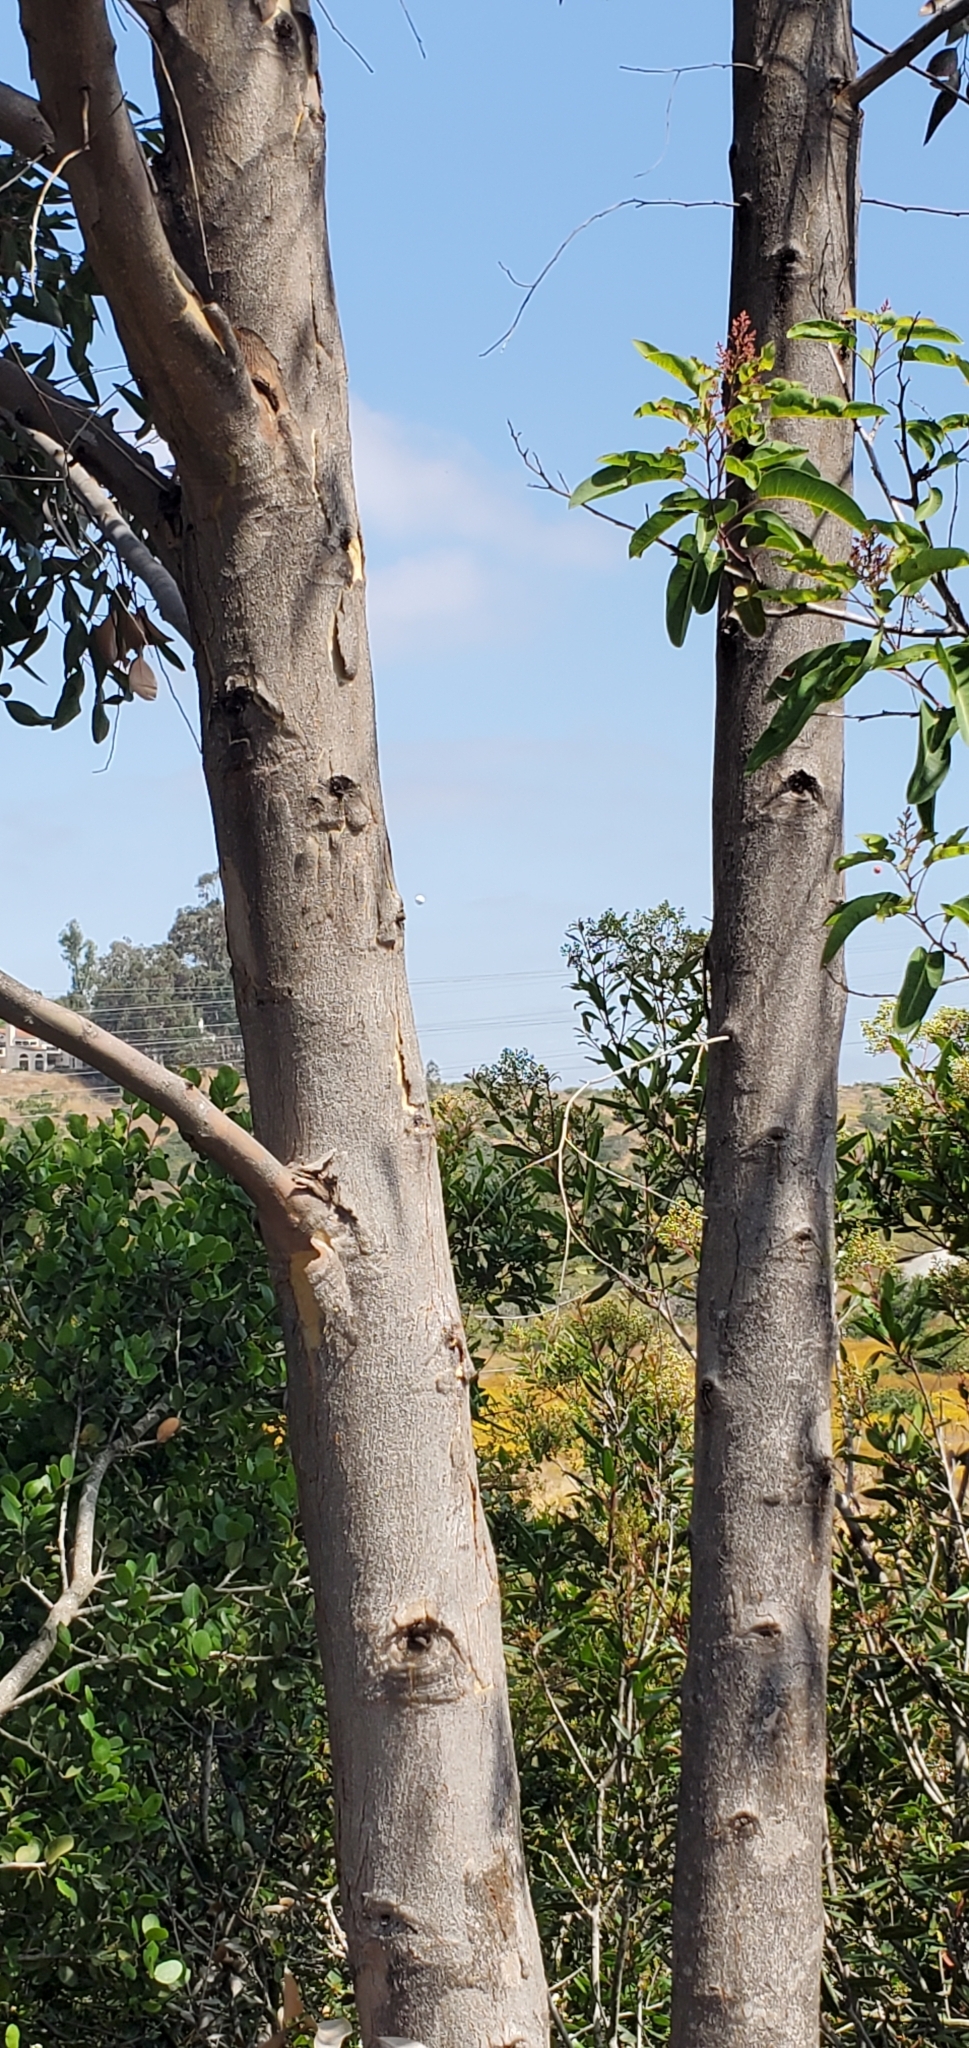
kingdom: Plantae
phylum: Tracheophyta
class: Magnoliopsida
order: Myrtales
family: Myrtaceae
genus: Eucalyptus
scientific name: Eucalyptus cladocalyx
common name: Sugargum
